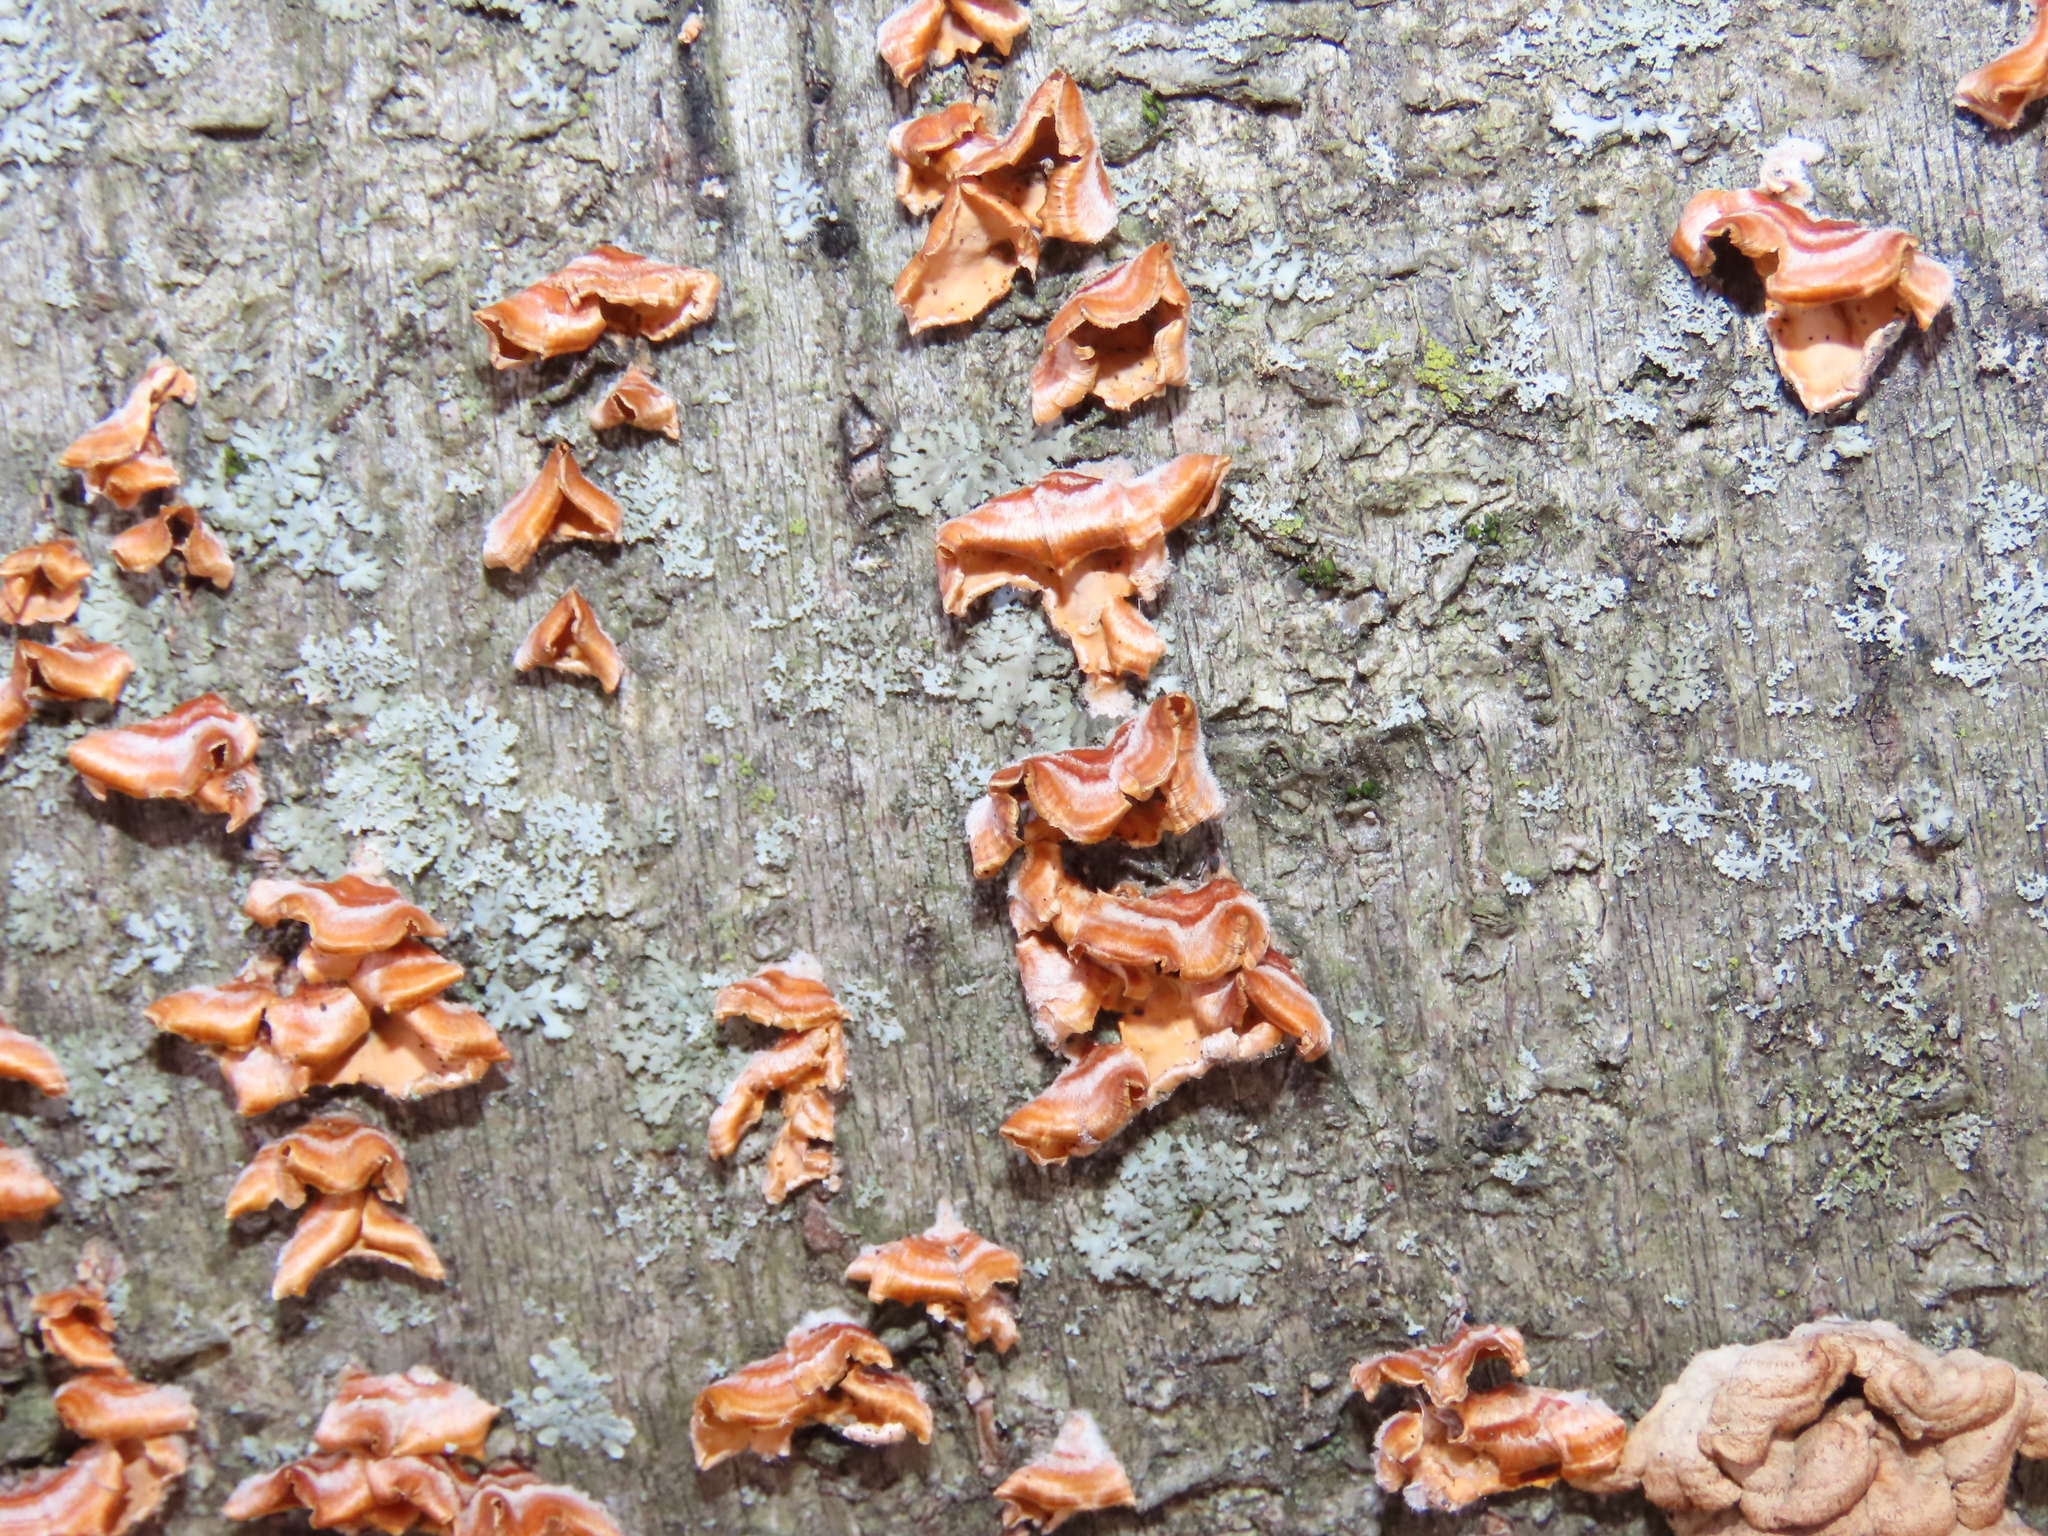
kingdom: Fungi
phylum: Basidiomycota
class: Agaricomycetes
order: Russulales
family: Stereaceae
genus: Stereum
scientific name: Stereum complicatum
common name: Crowded parchment
